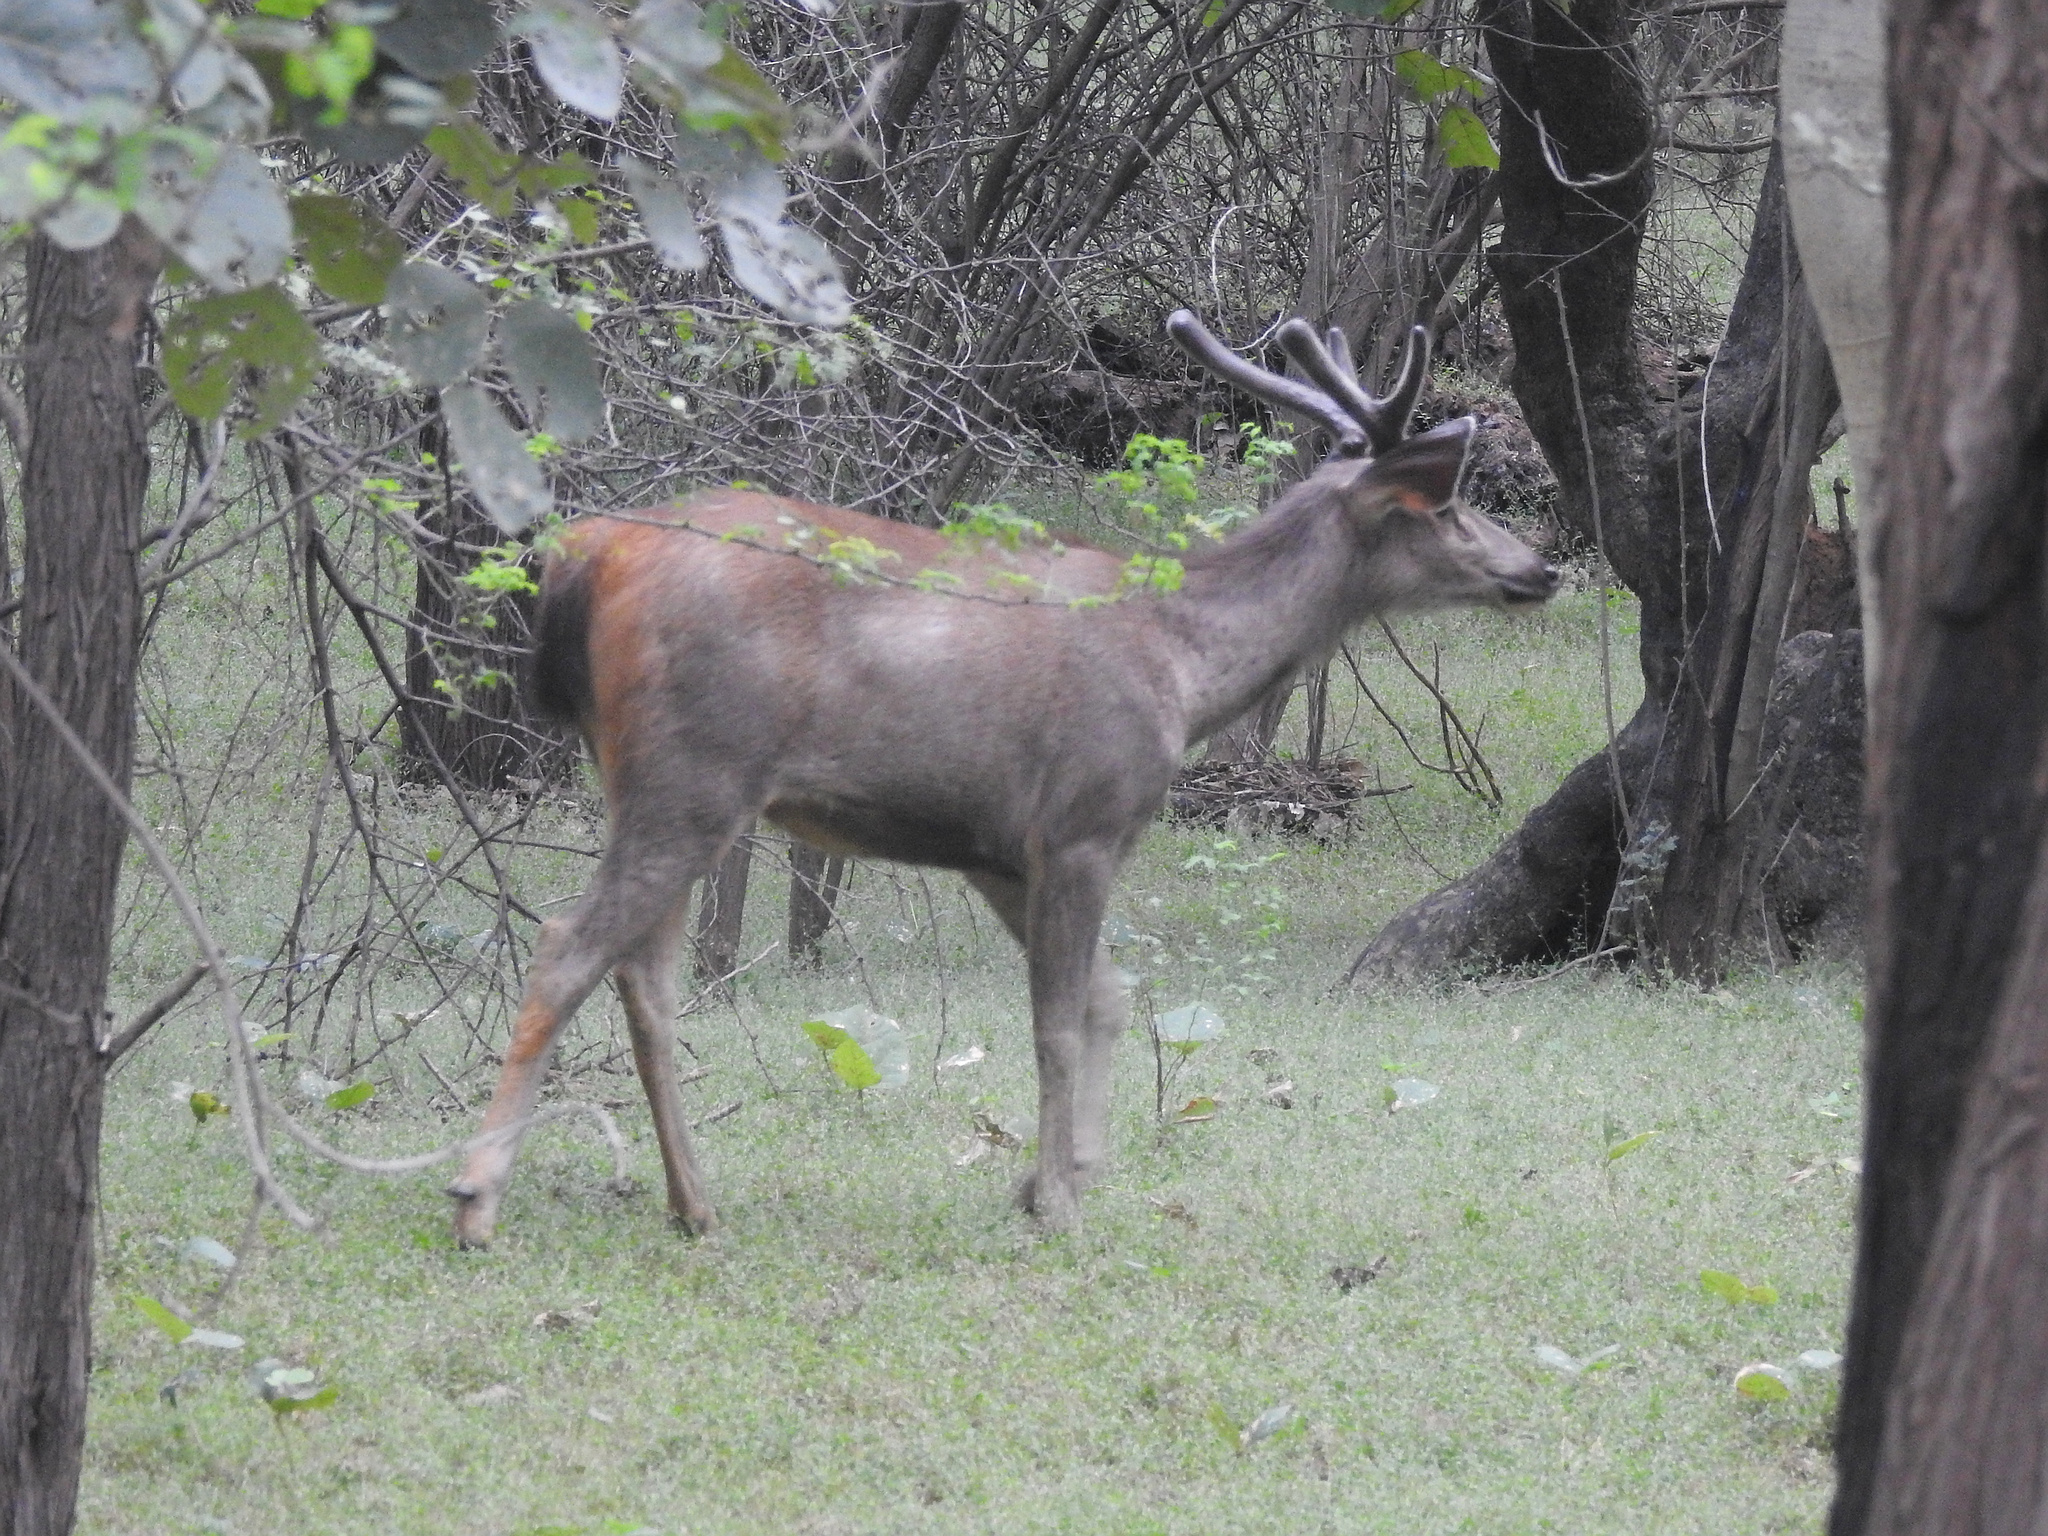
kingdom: Animalia
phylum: Chordata
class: Mammalia
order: Artiodactyla
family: Cervidae
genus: Rusa
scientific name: Rusa unicolor
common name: Sambar
